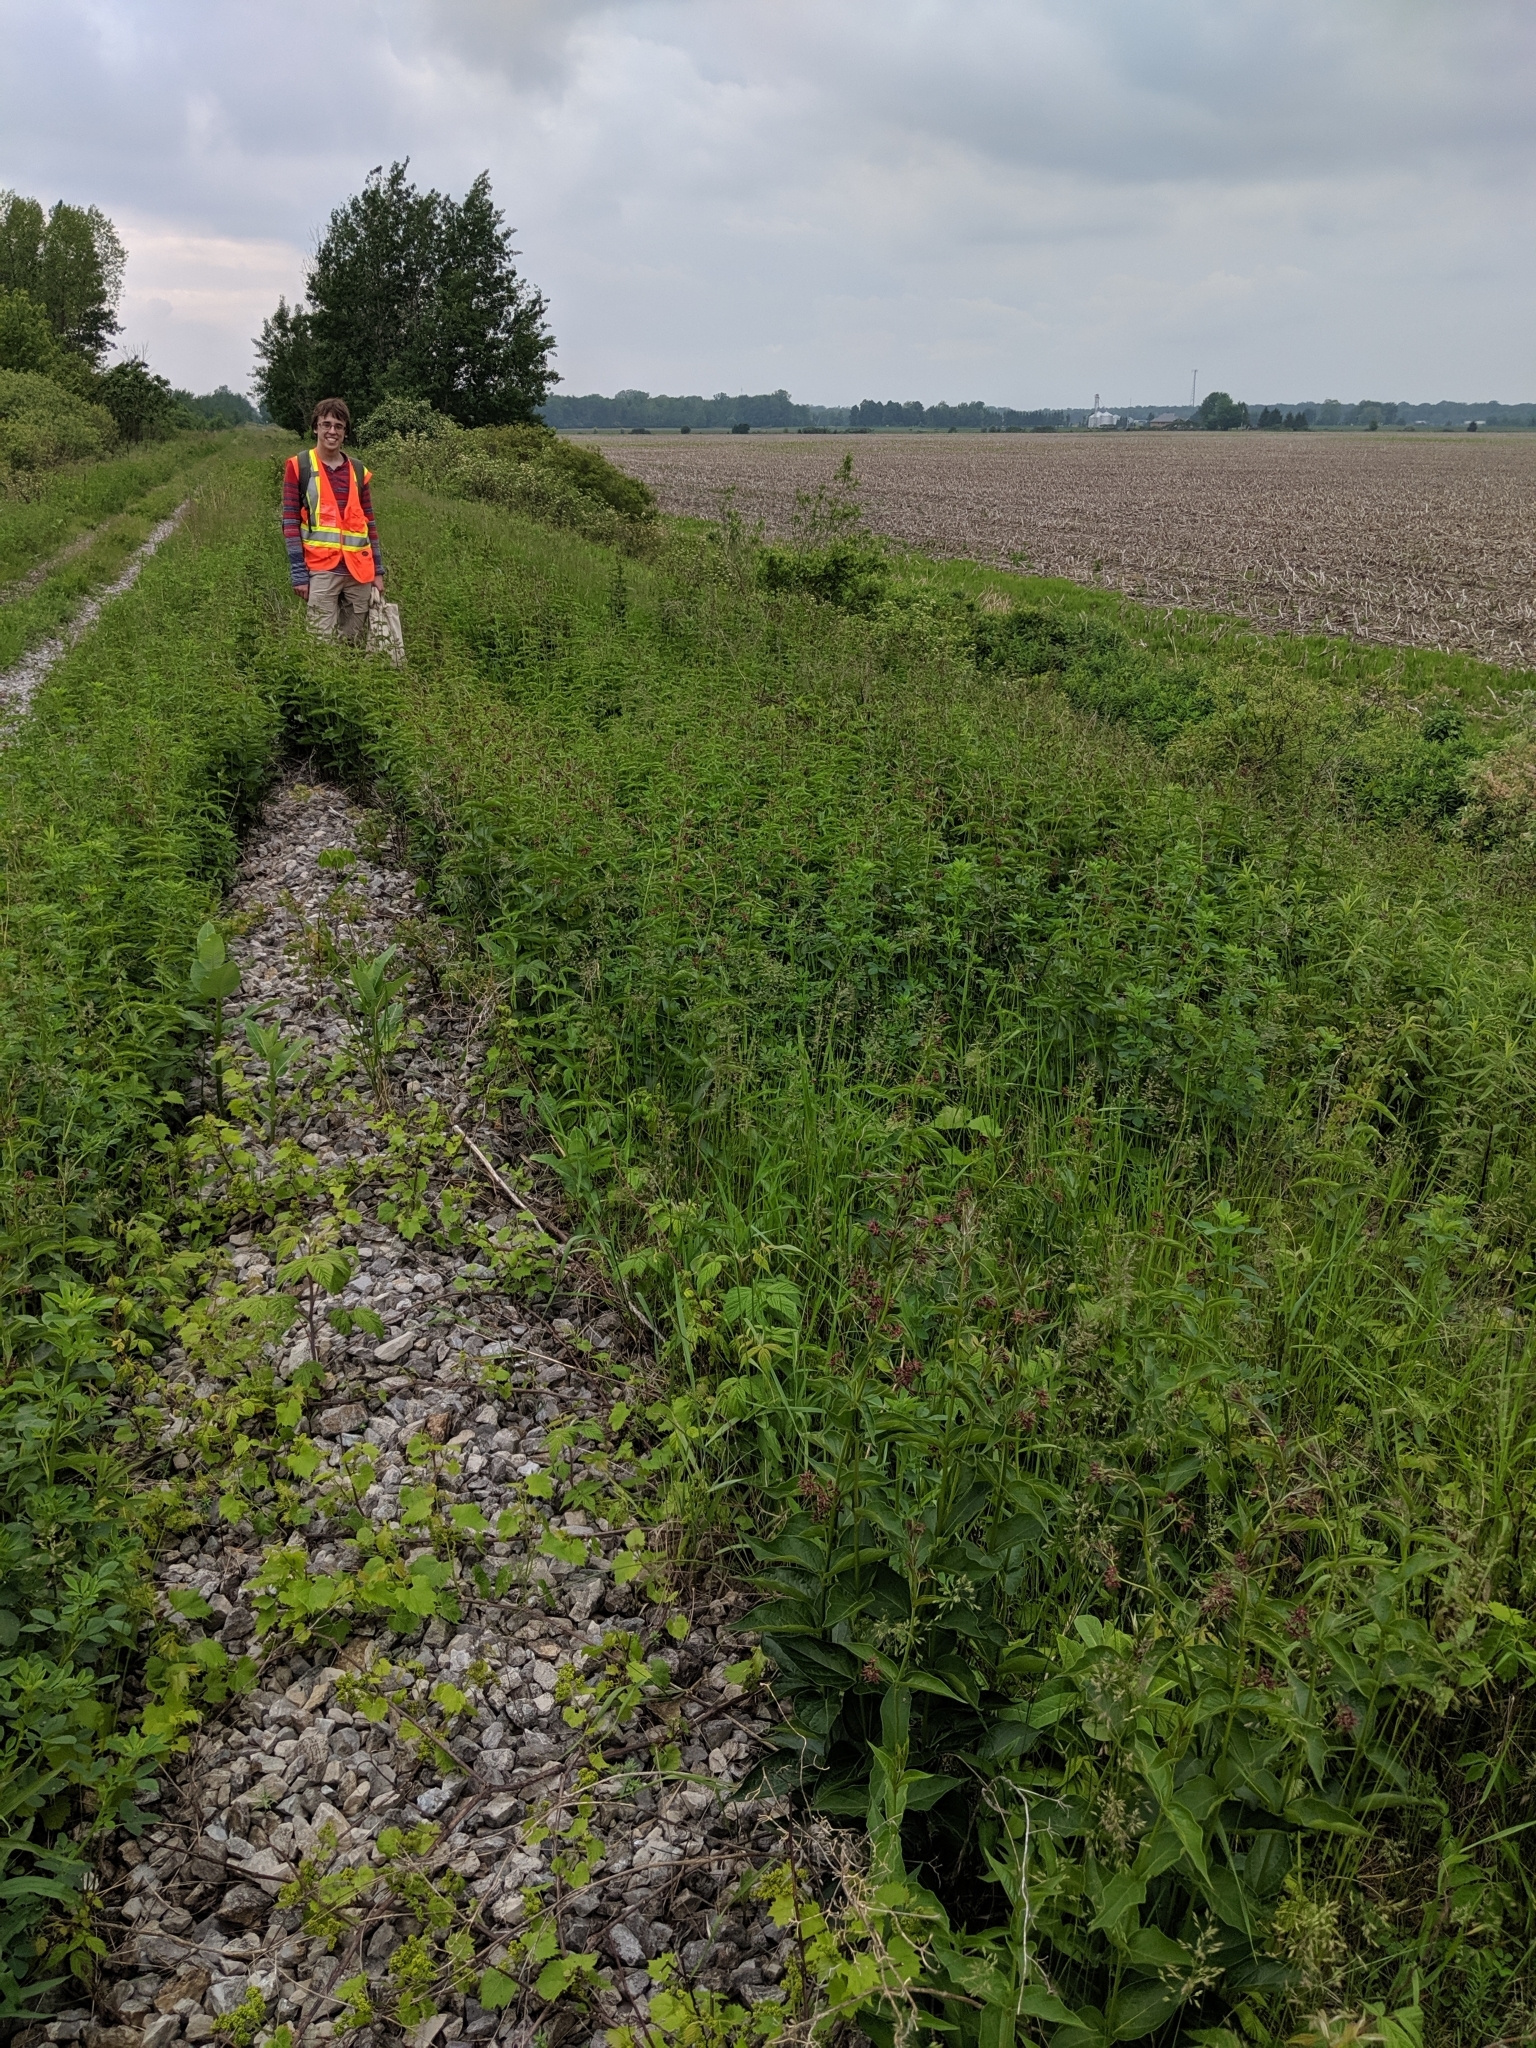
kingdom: Plantae
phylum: Tracheophyta
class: Magnoliopsida
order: Gentianales
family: Apocynaceae
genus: Vincetoxicum
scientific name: Vincetoxicum rossicum
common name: Dog-strangling vine
